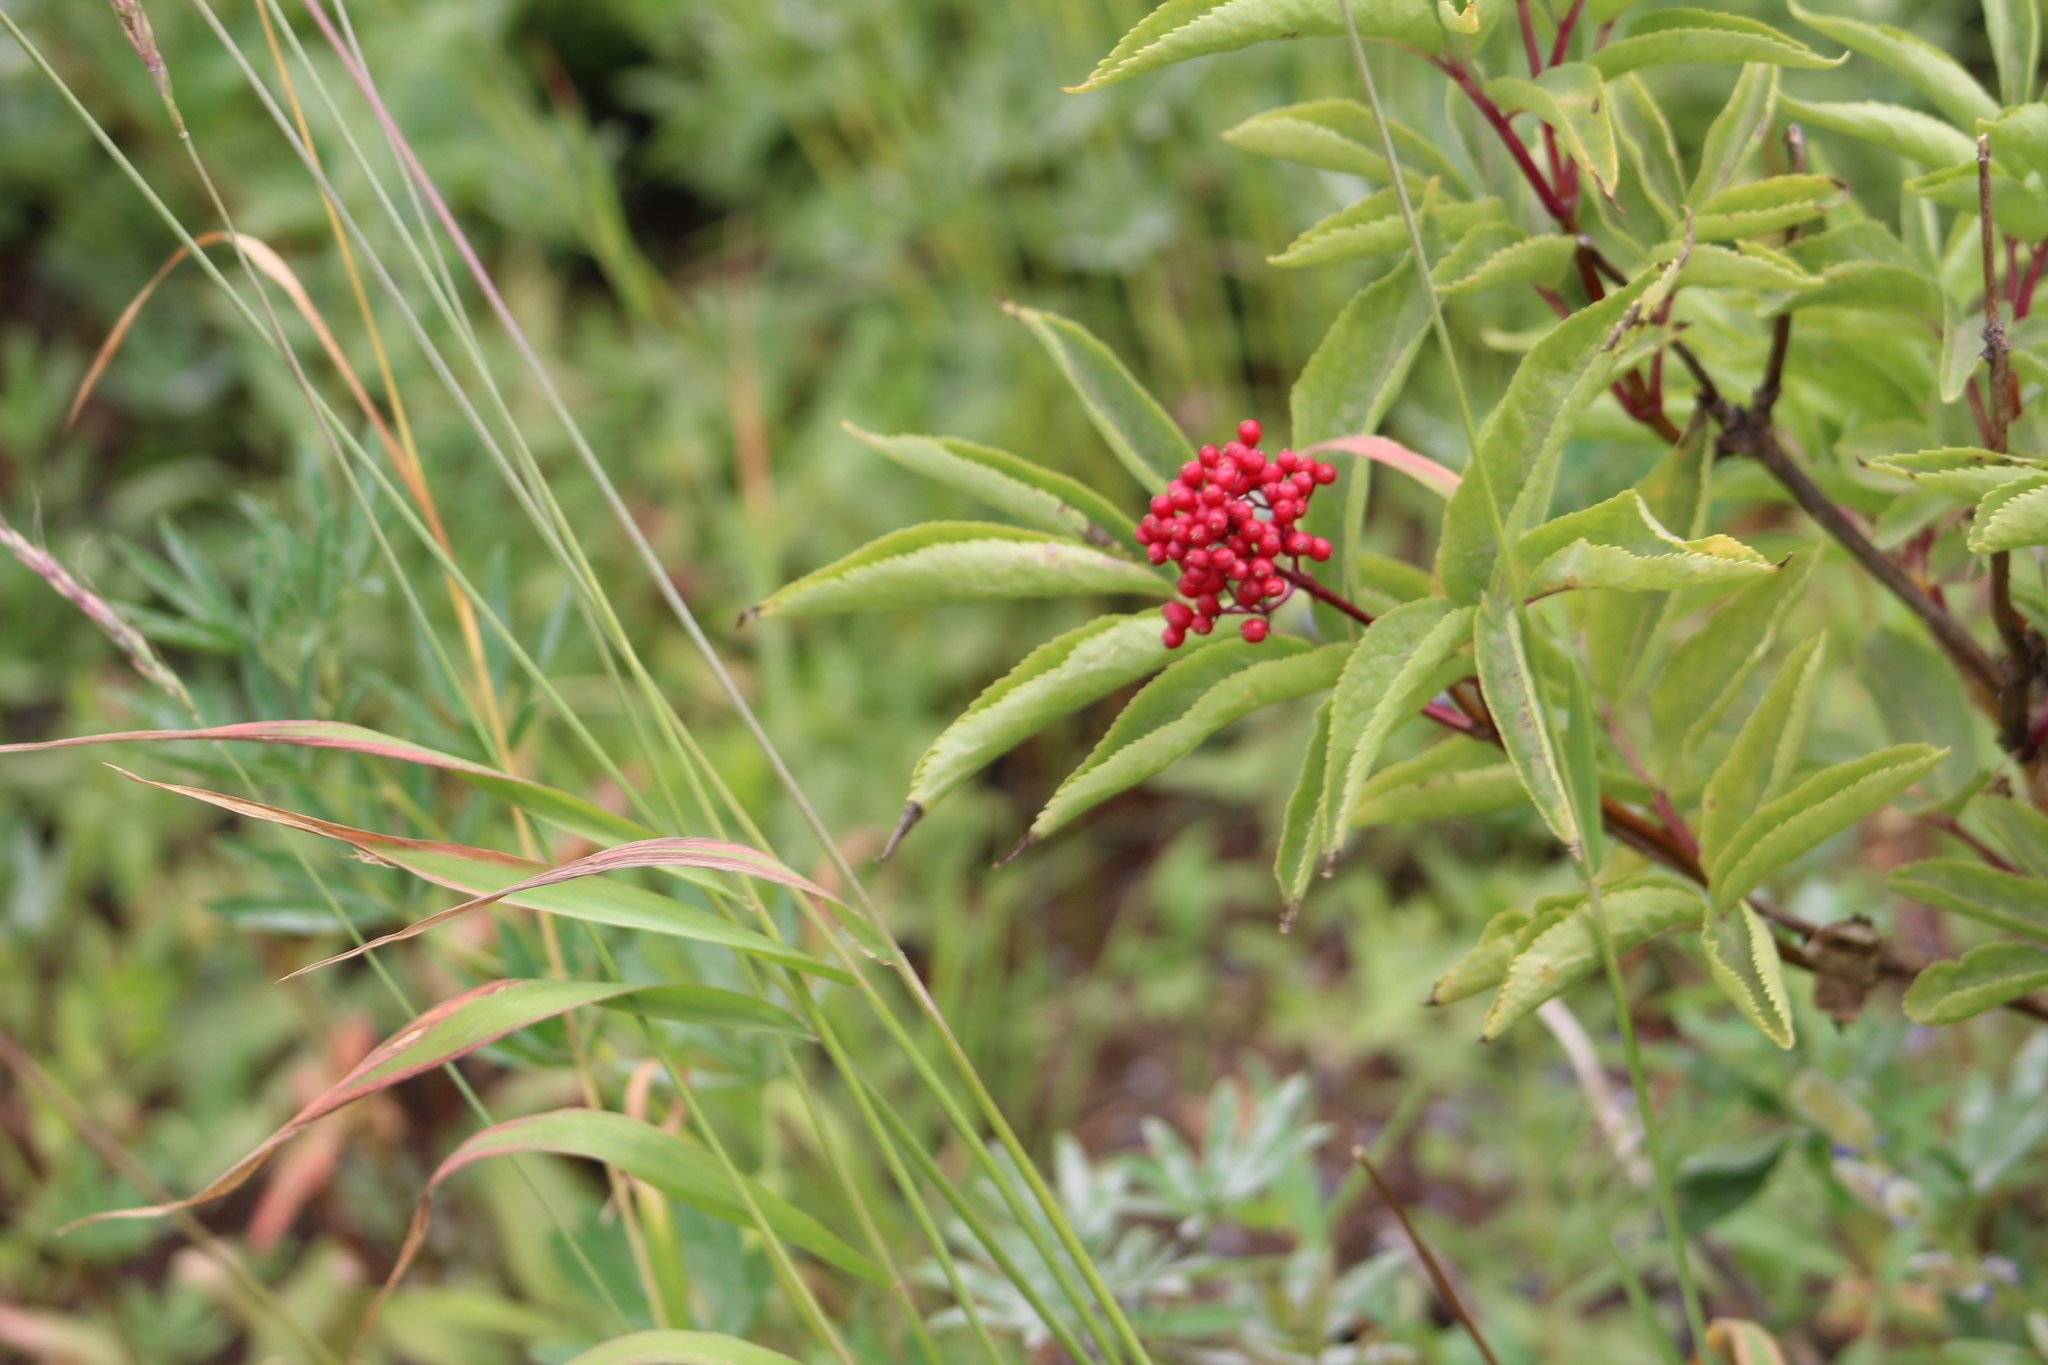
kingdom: Plantae
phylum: Tracheophyta
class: Magnoliopsida
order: Dipsacales
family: Viburnaceae
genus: Sambucus
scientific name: Sambucus racemosa
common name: Red-berried elder
